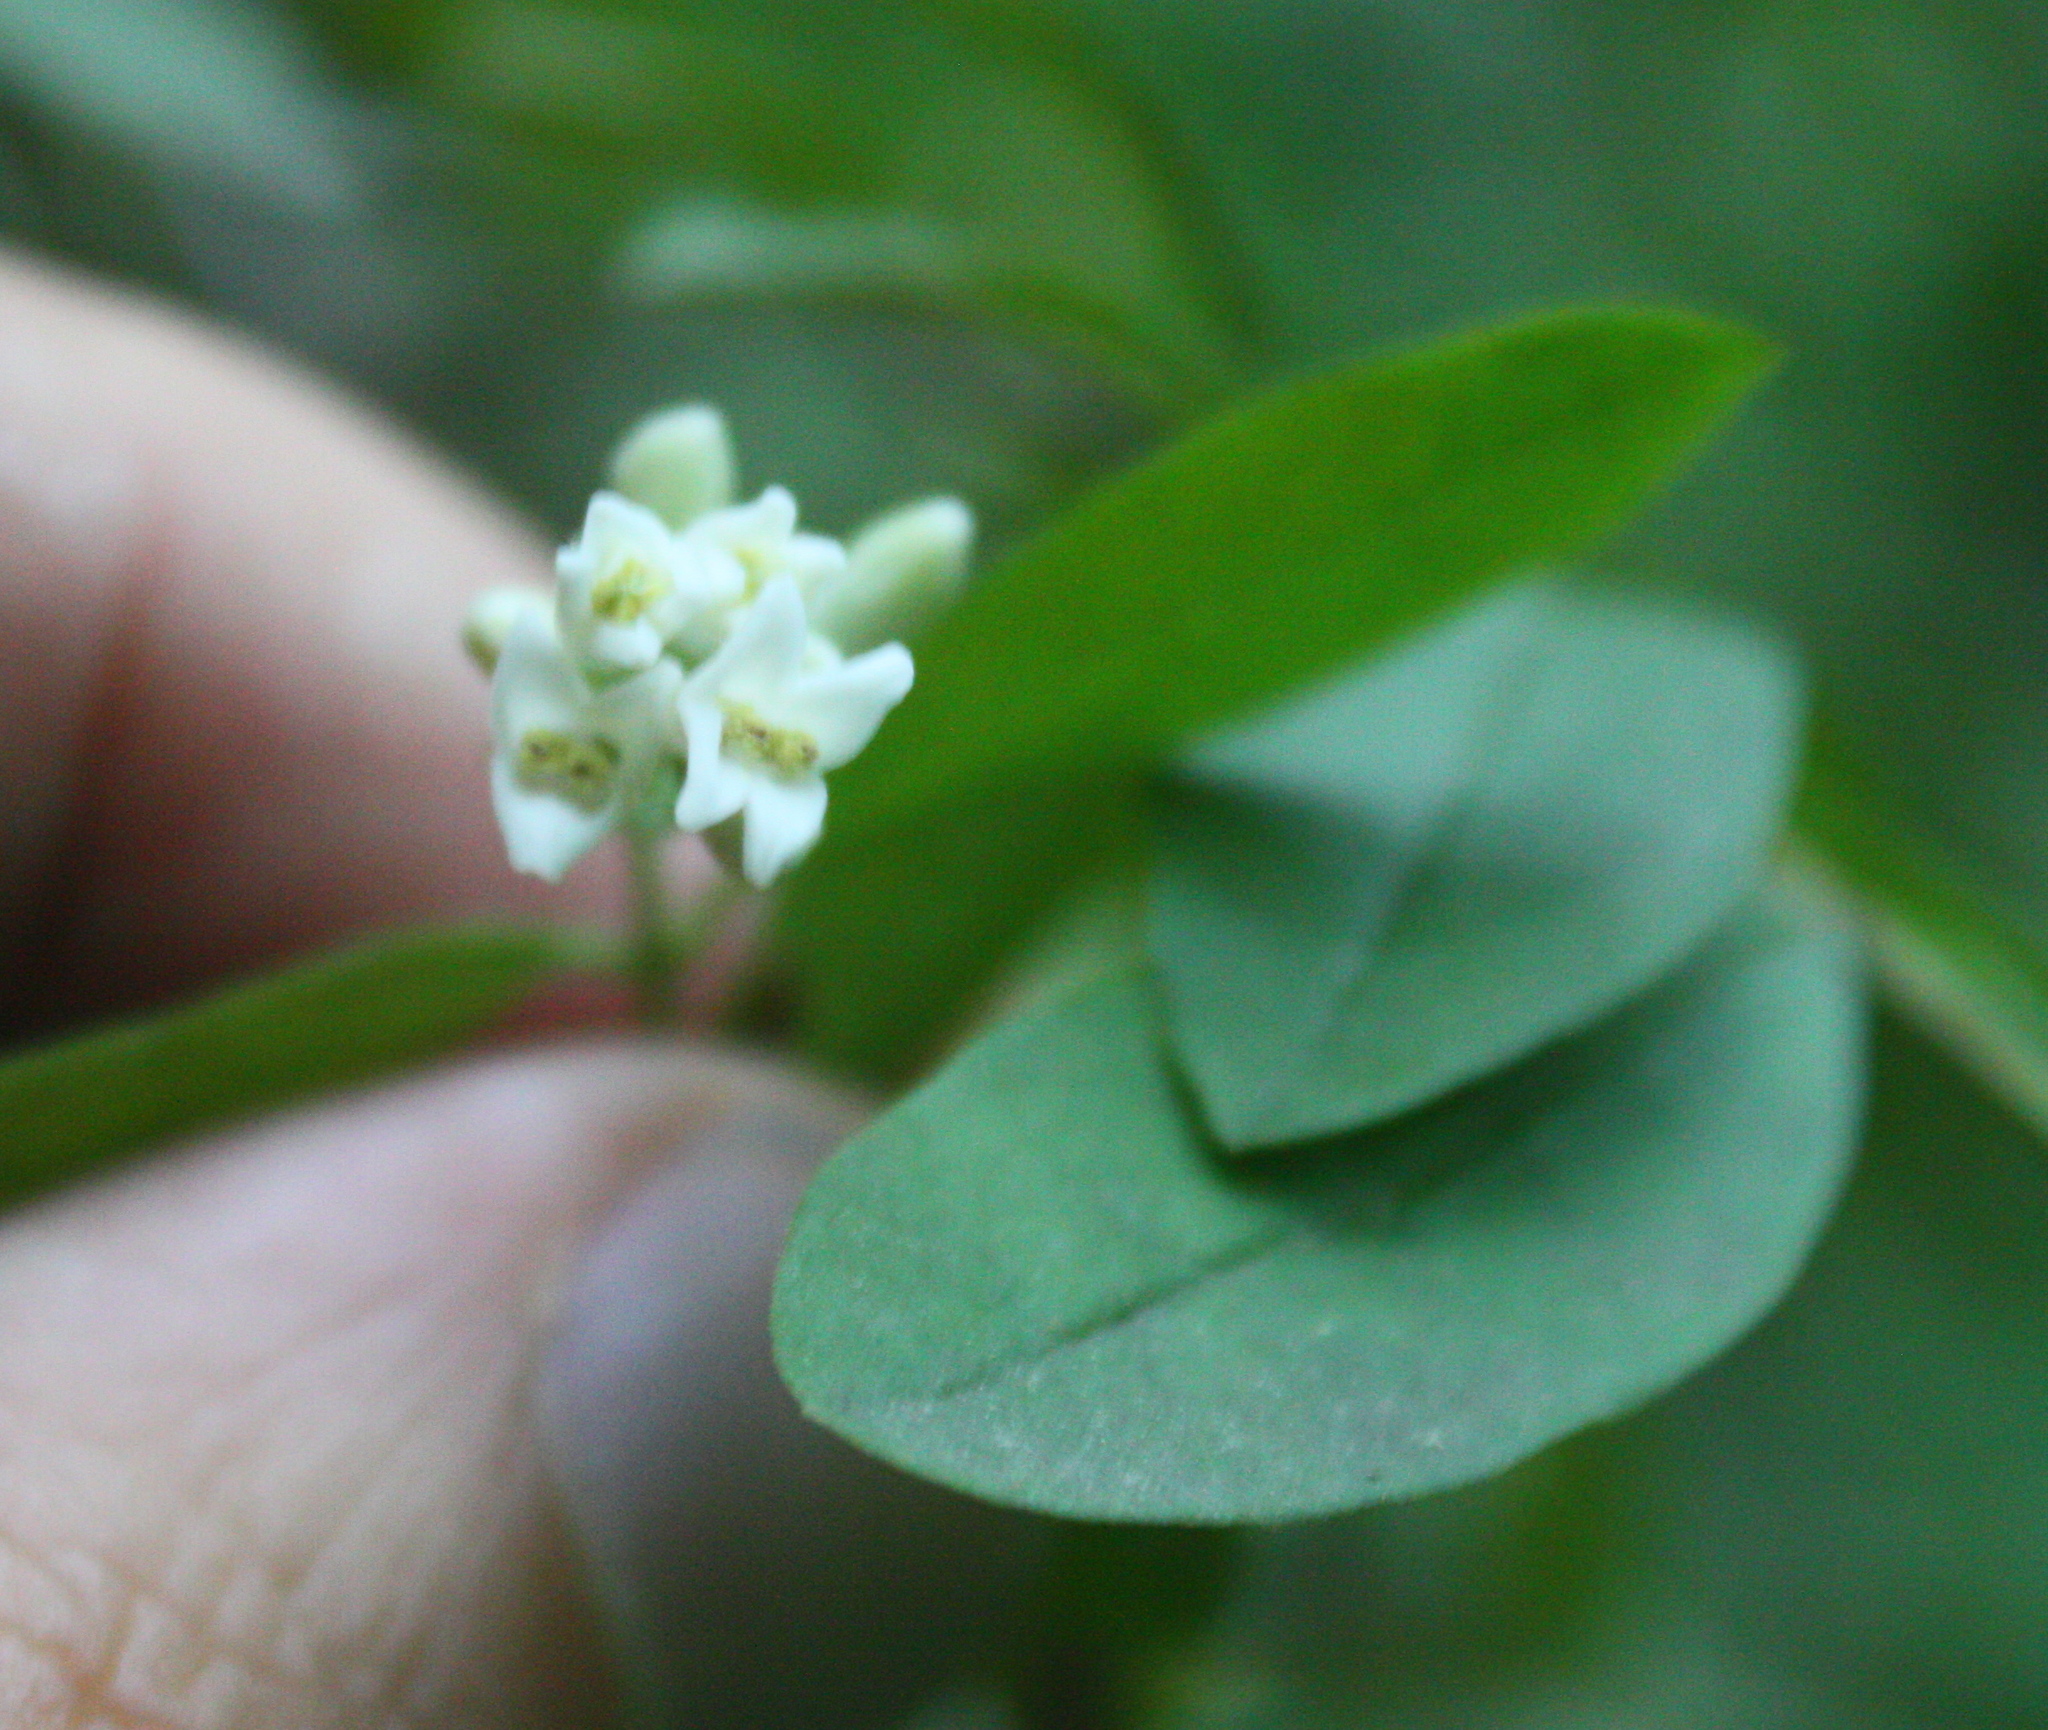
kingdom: Plantae
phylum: Tracheophyta
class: Magnoliopsida
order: Lamiales
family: Oleaceae
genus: Ligustrum
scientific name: Ligustrum obtusifolium
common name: Border privet
